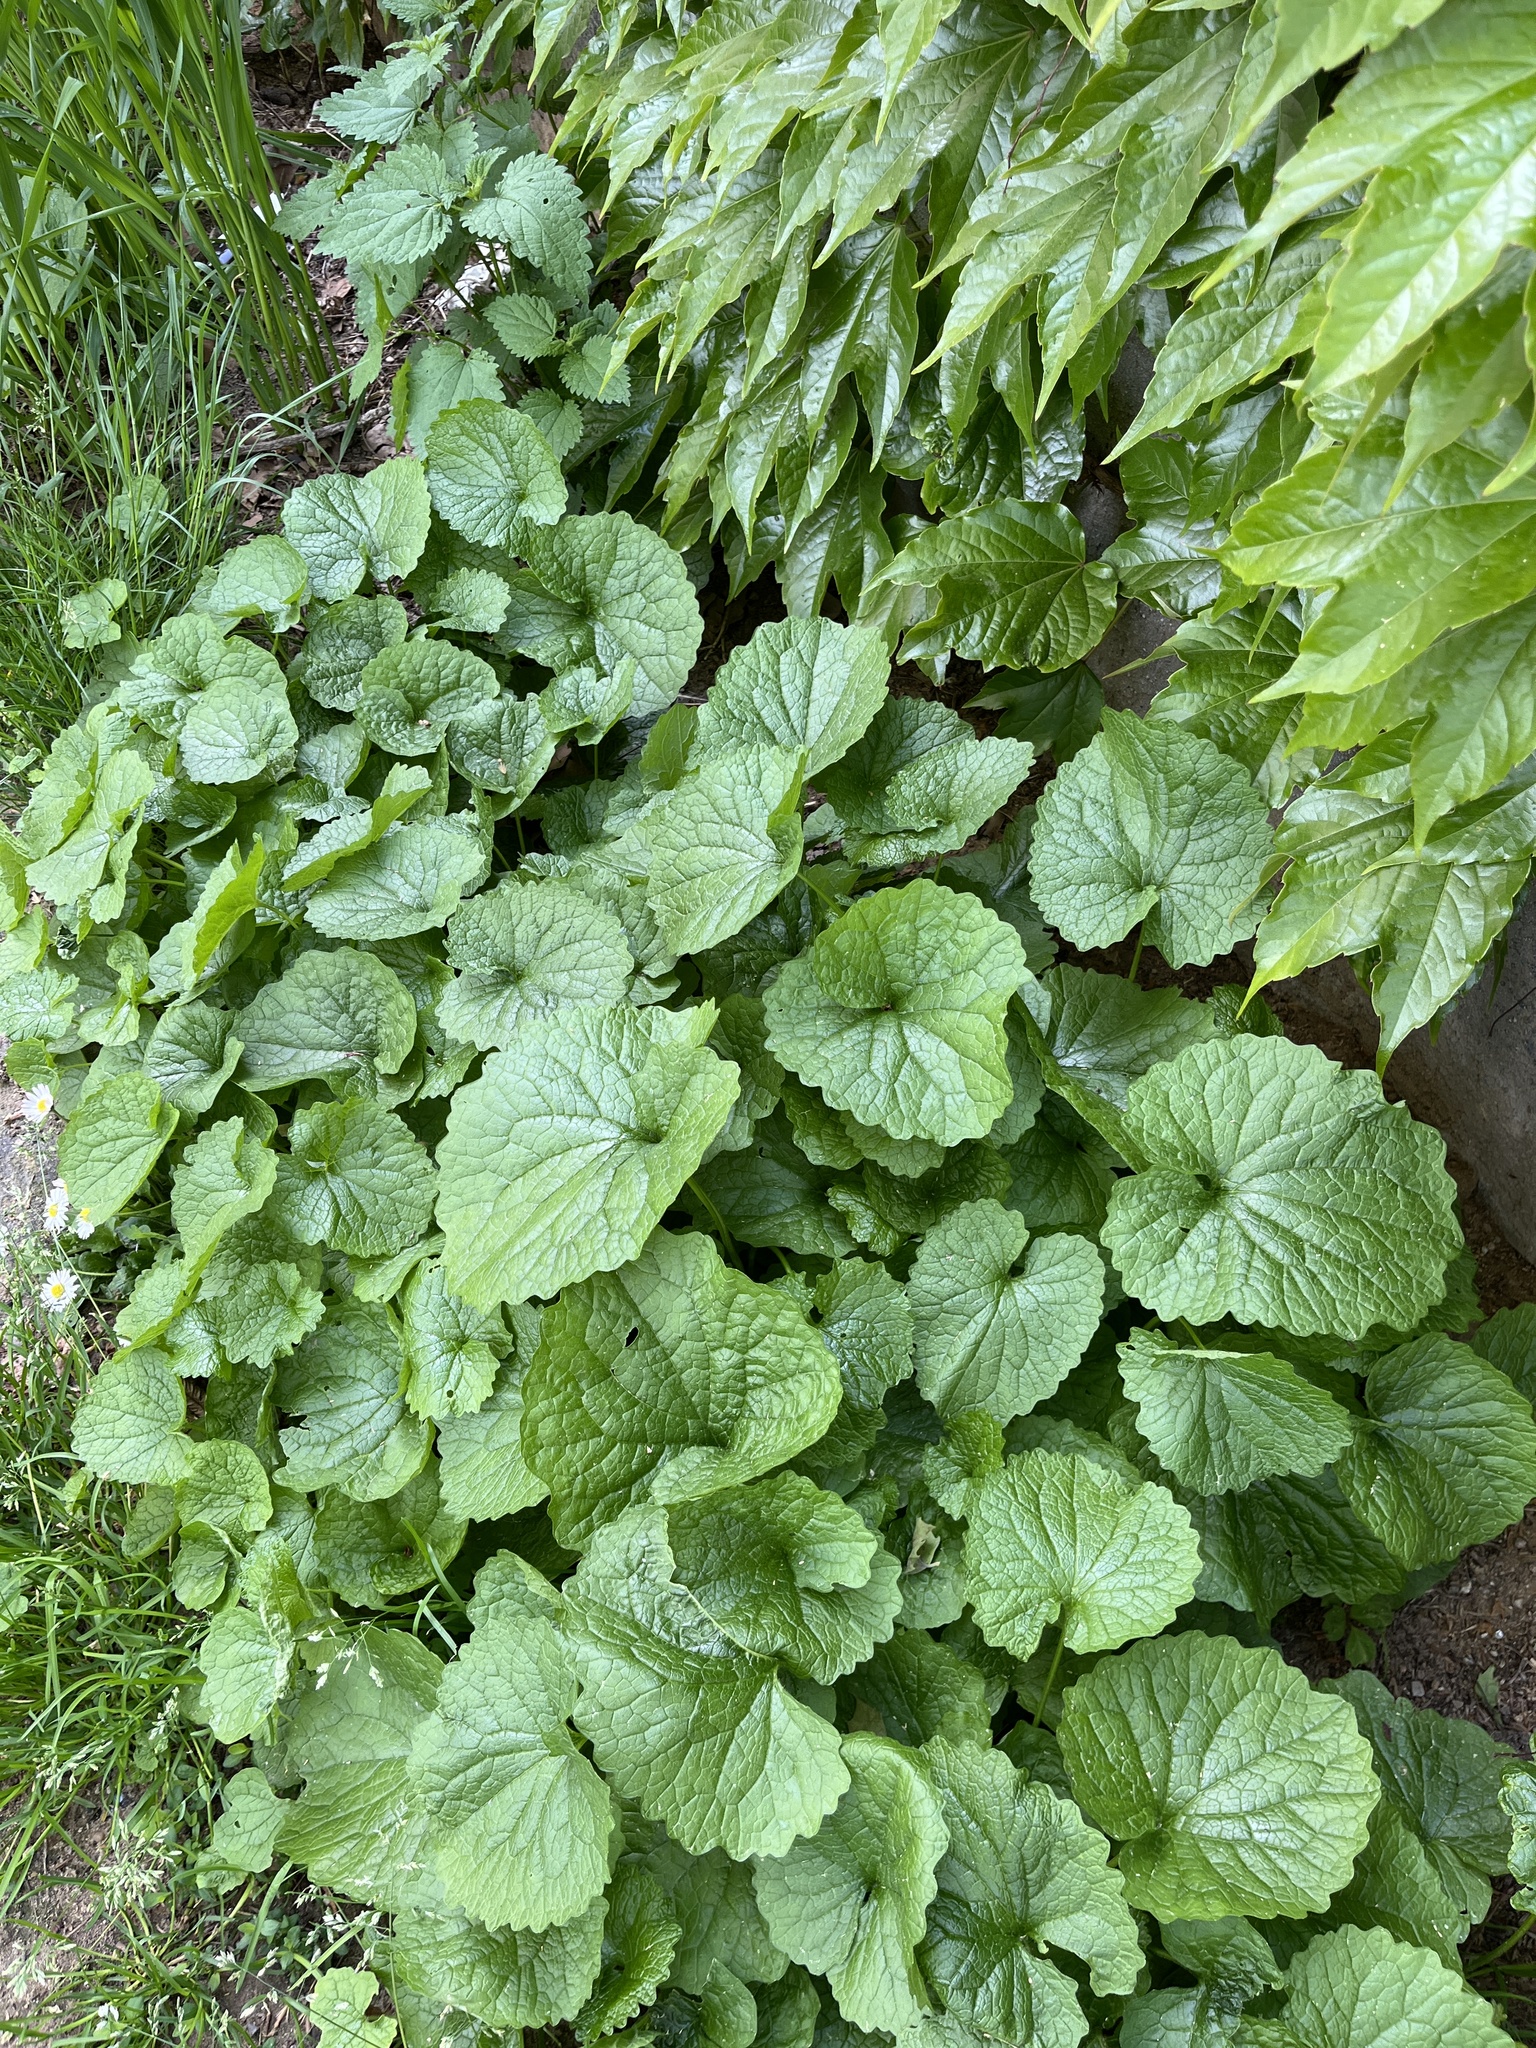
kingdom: Plantae
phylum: Tracheophyta
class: Magnoliopsida
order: Brassicales
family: Brassicaceae
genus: Alliaria
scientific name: Alliaria petiolata
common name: Garlic mustard
